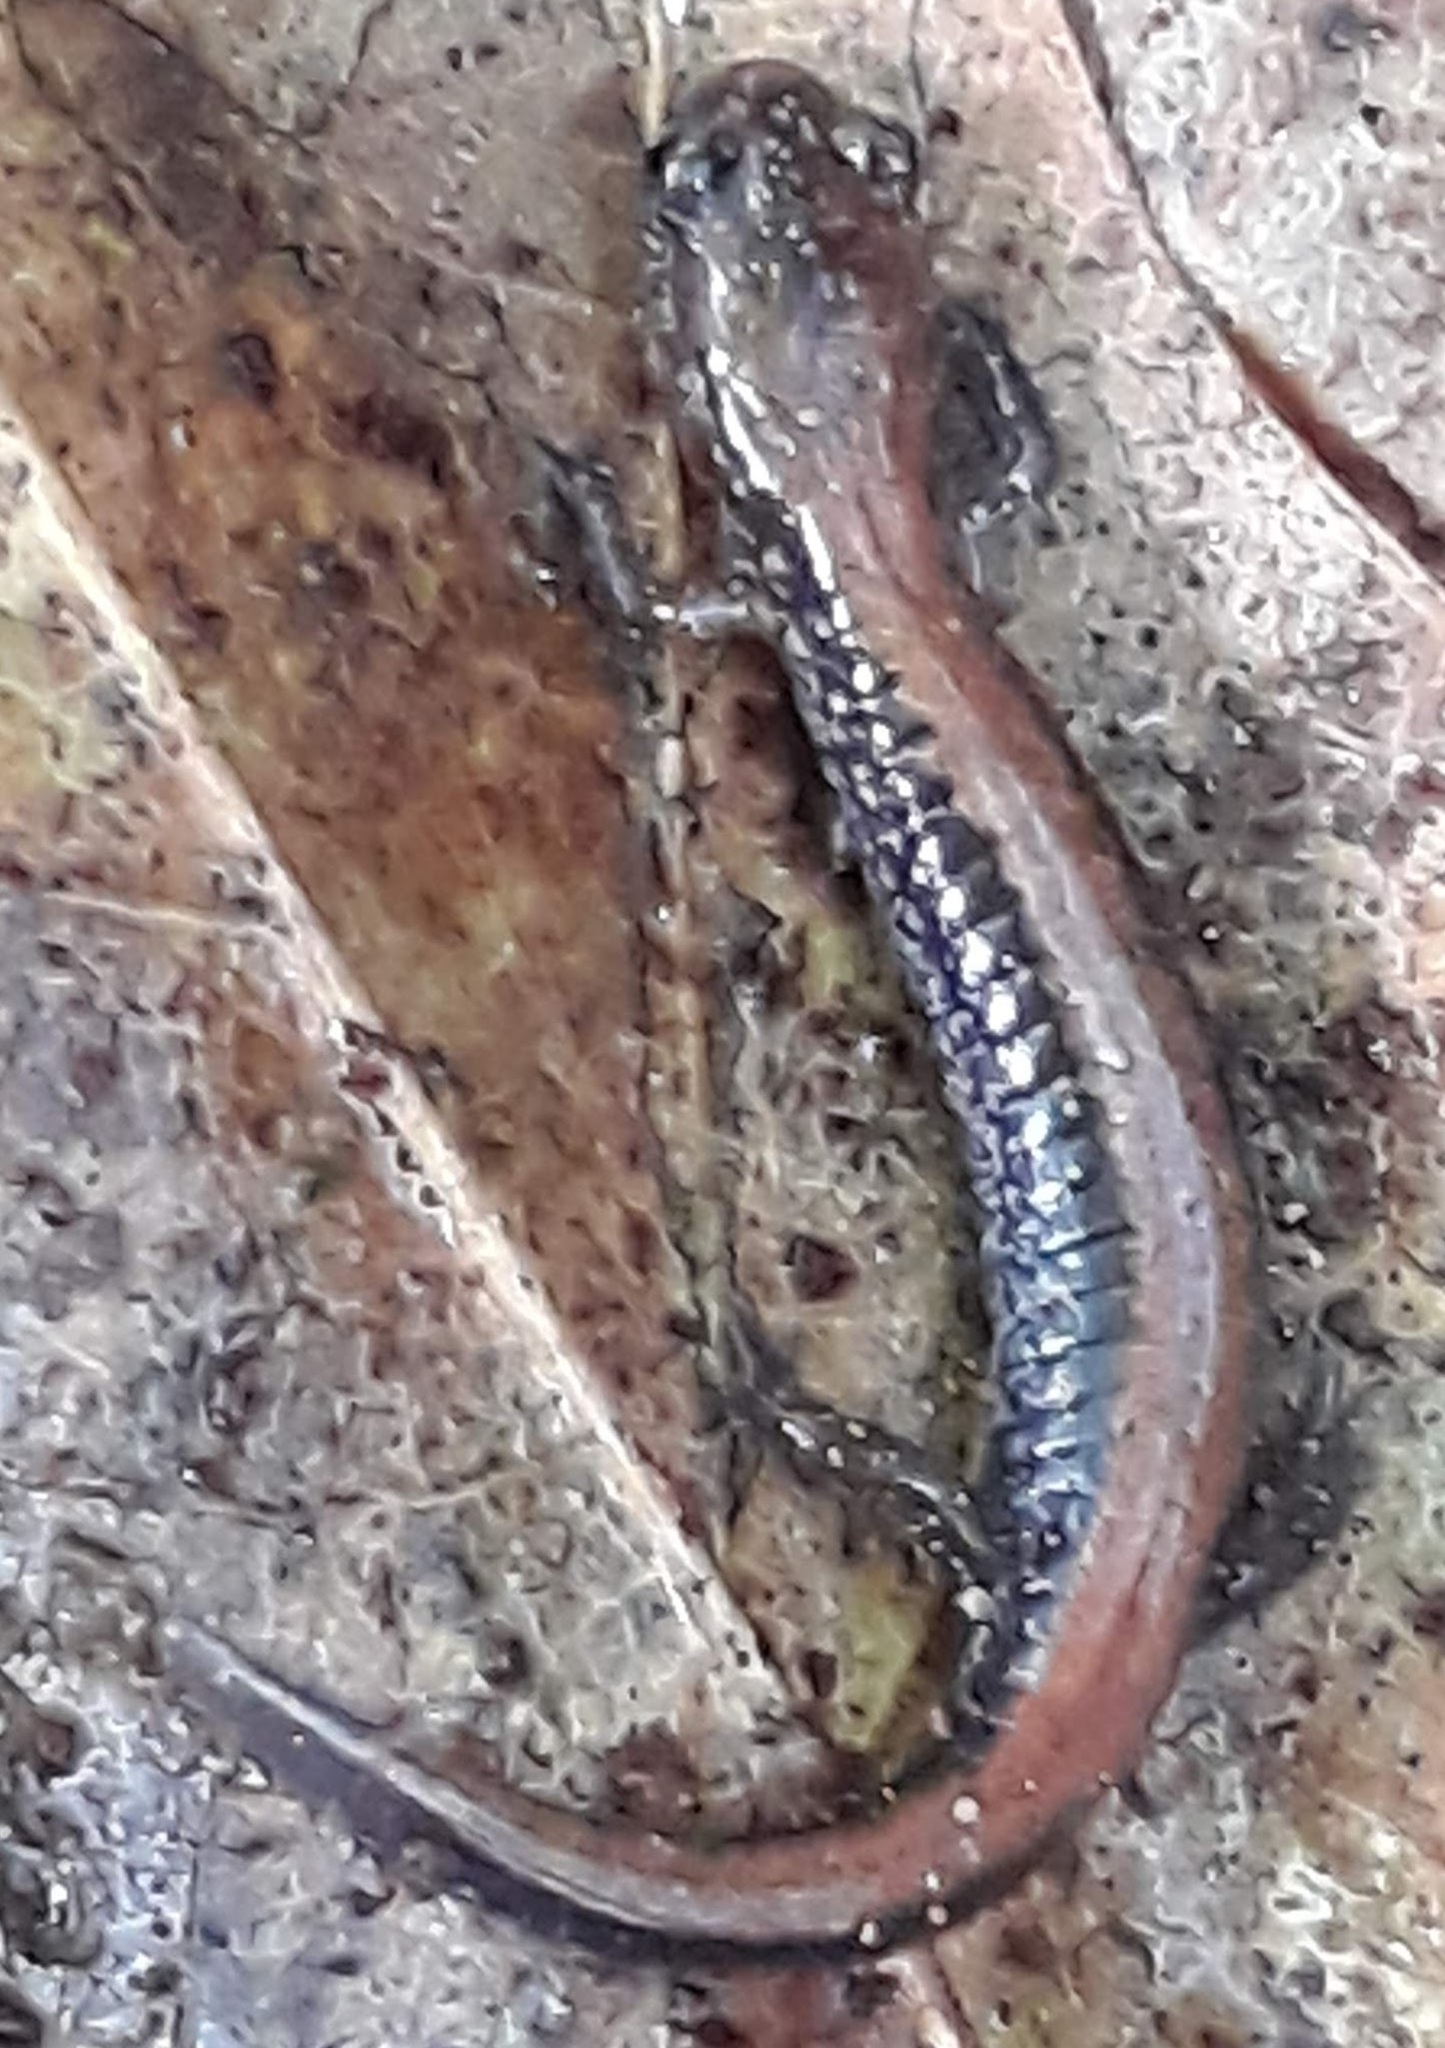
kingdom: Animalia
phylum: Chordata
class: Amphibia
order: Caudata
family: Plethodontidae
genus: Plethodon
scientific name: Plethodon cinereus
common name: Redback salamander
